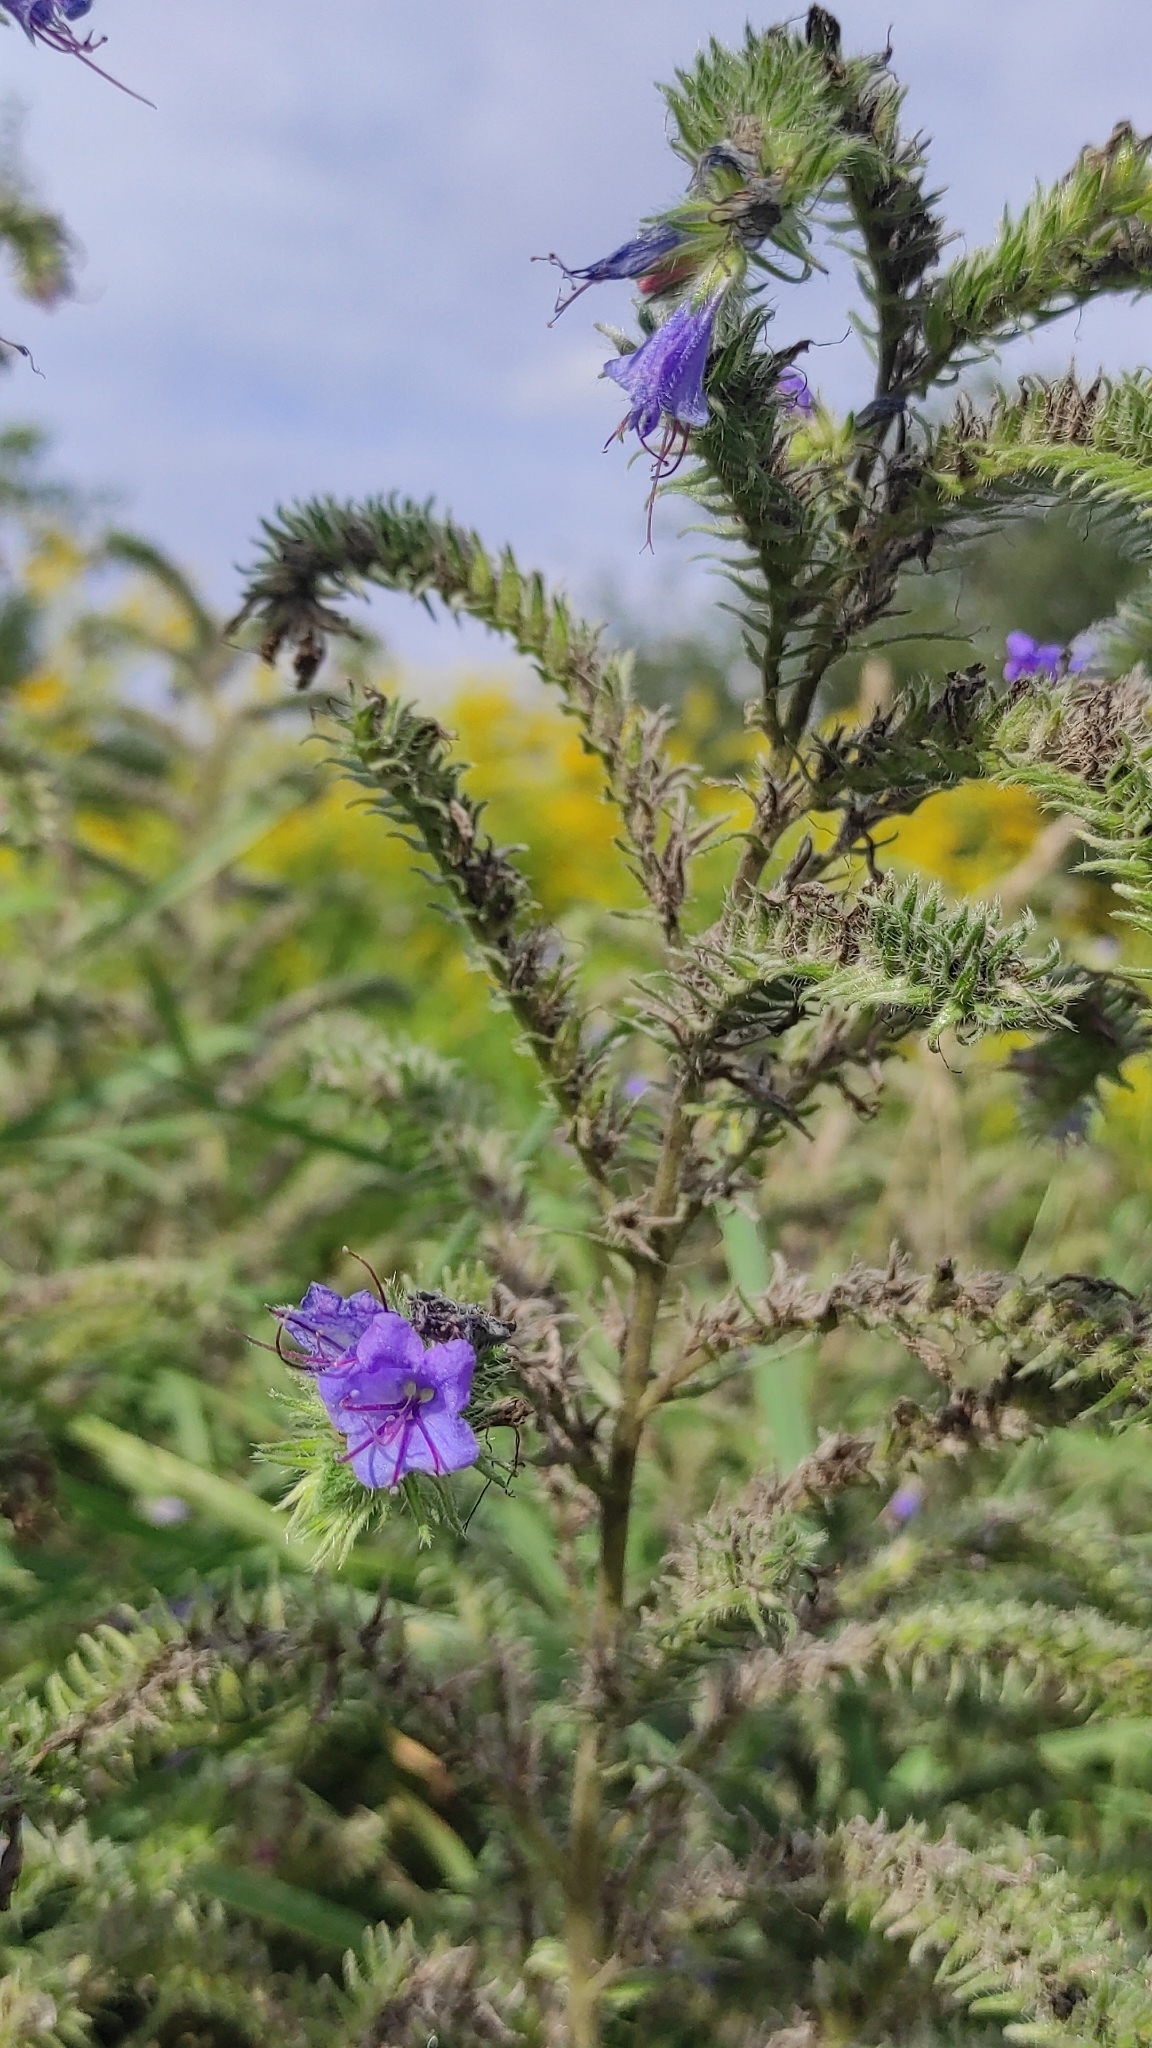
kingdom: Plantae
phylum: Tracheophyta
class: Magnoliopsida
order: Boraginales
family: Boraginaceae
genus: Echium
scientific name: Echium vulgare
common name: Common viper's bugloss
